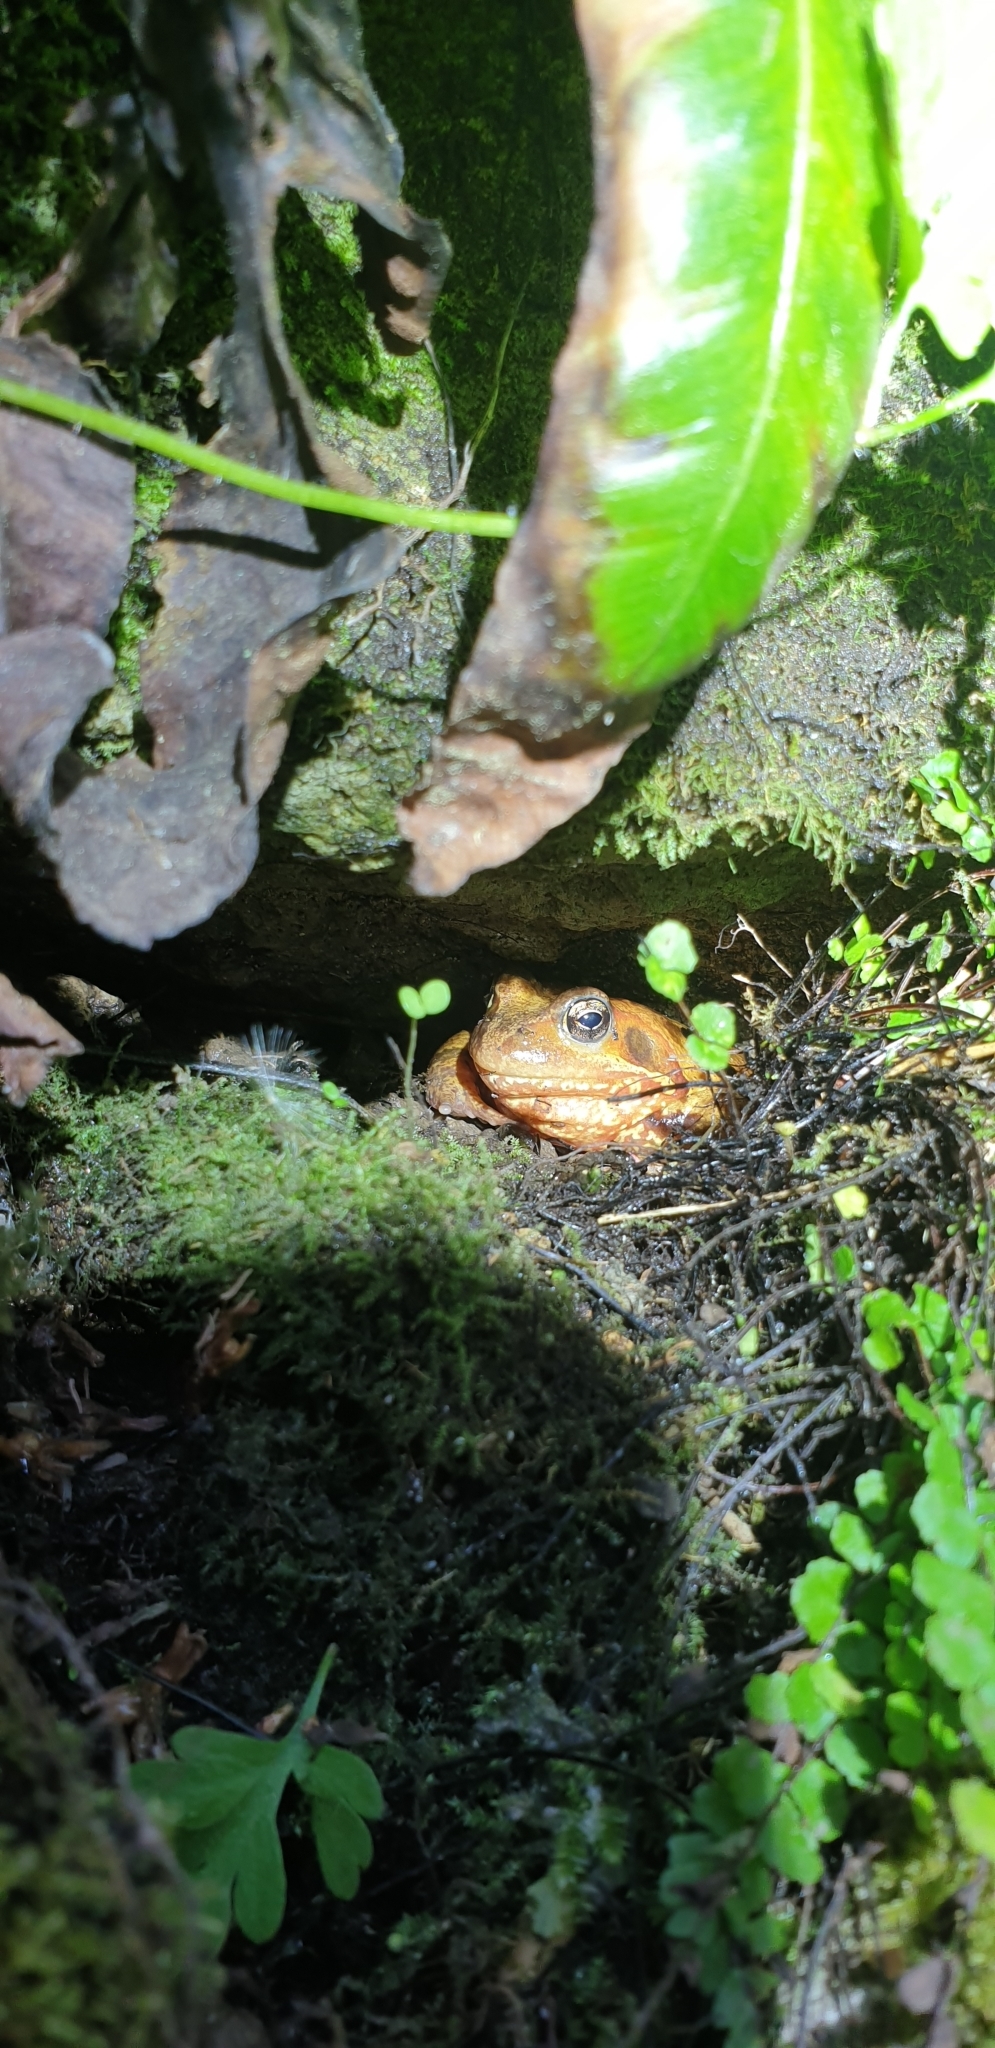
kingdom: Animalia
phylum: Chordata
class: Amphibia
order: Anura
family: Ranidae
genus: Rana
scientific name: Rana temporaria
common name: Common frog
